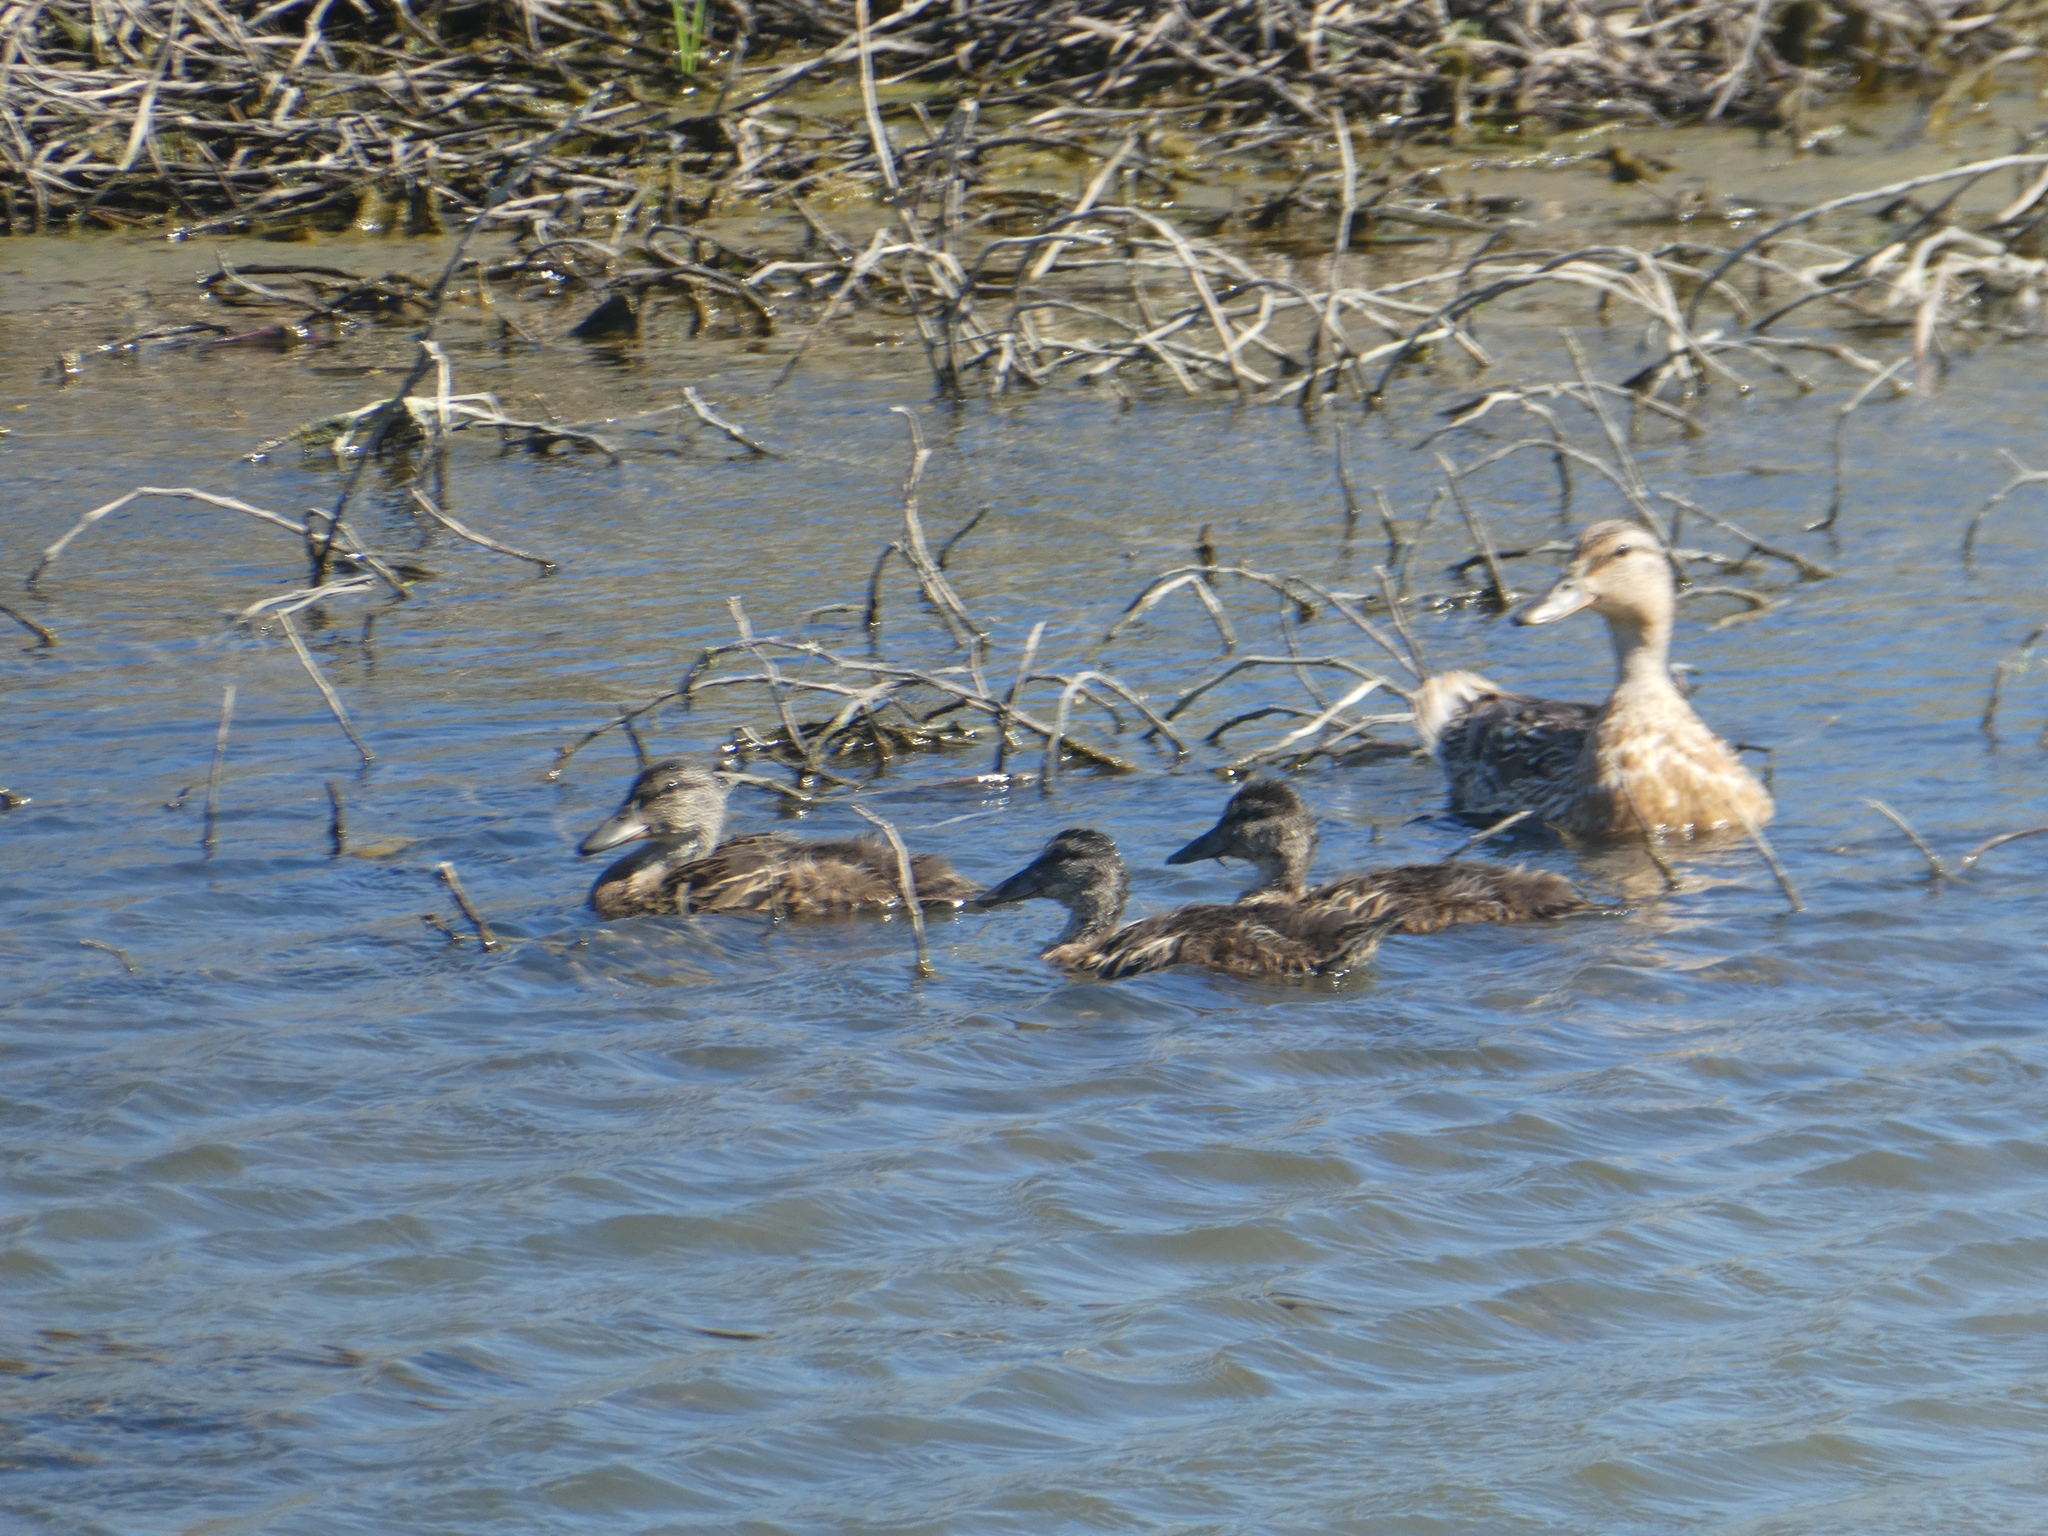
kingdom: Animalia
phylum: Chordata
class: Aves
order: Anseriformes
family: Anatidae
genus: Mareca
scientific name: Mareca strepera
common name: Gadwall
